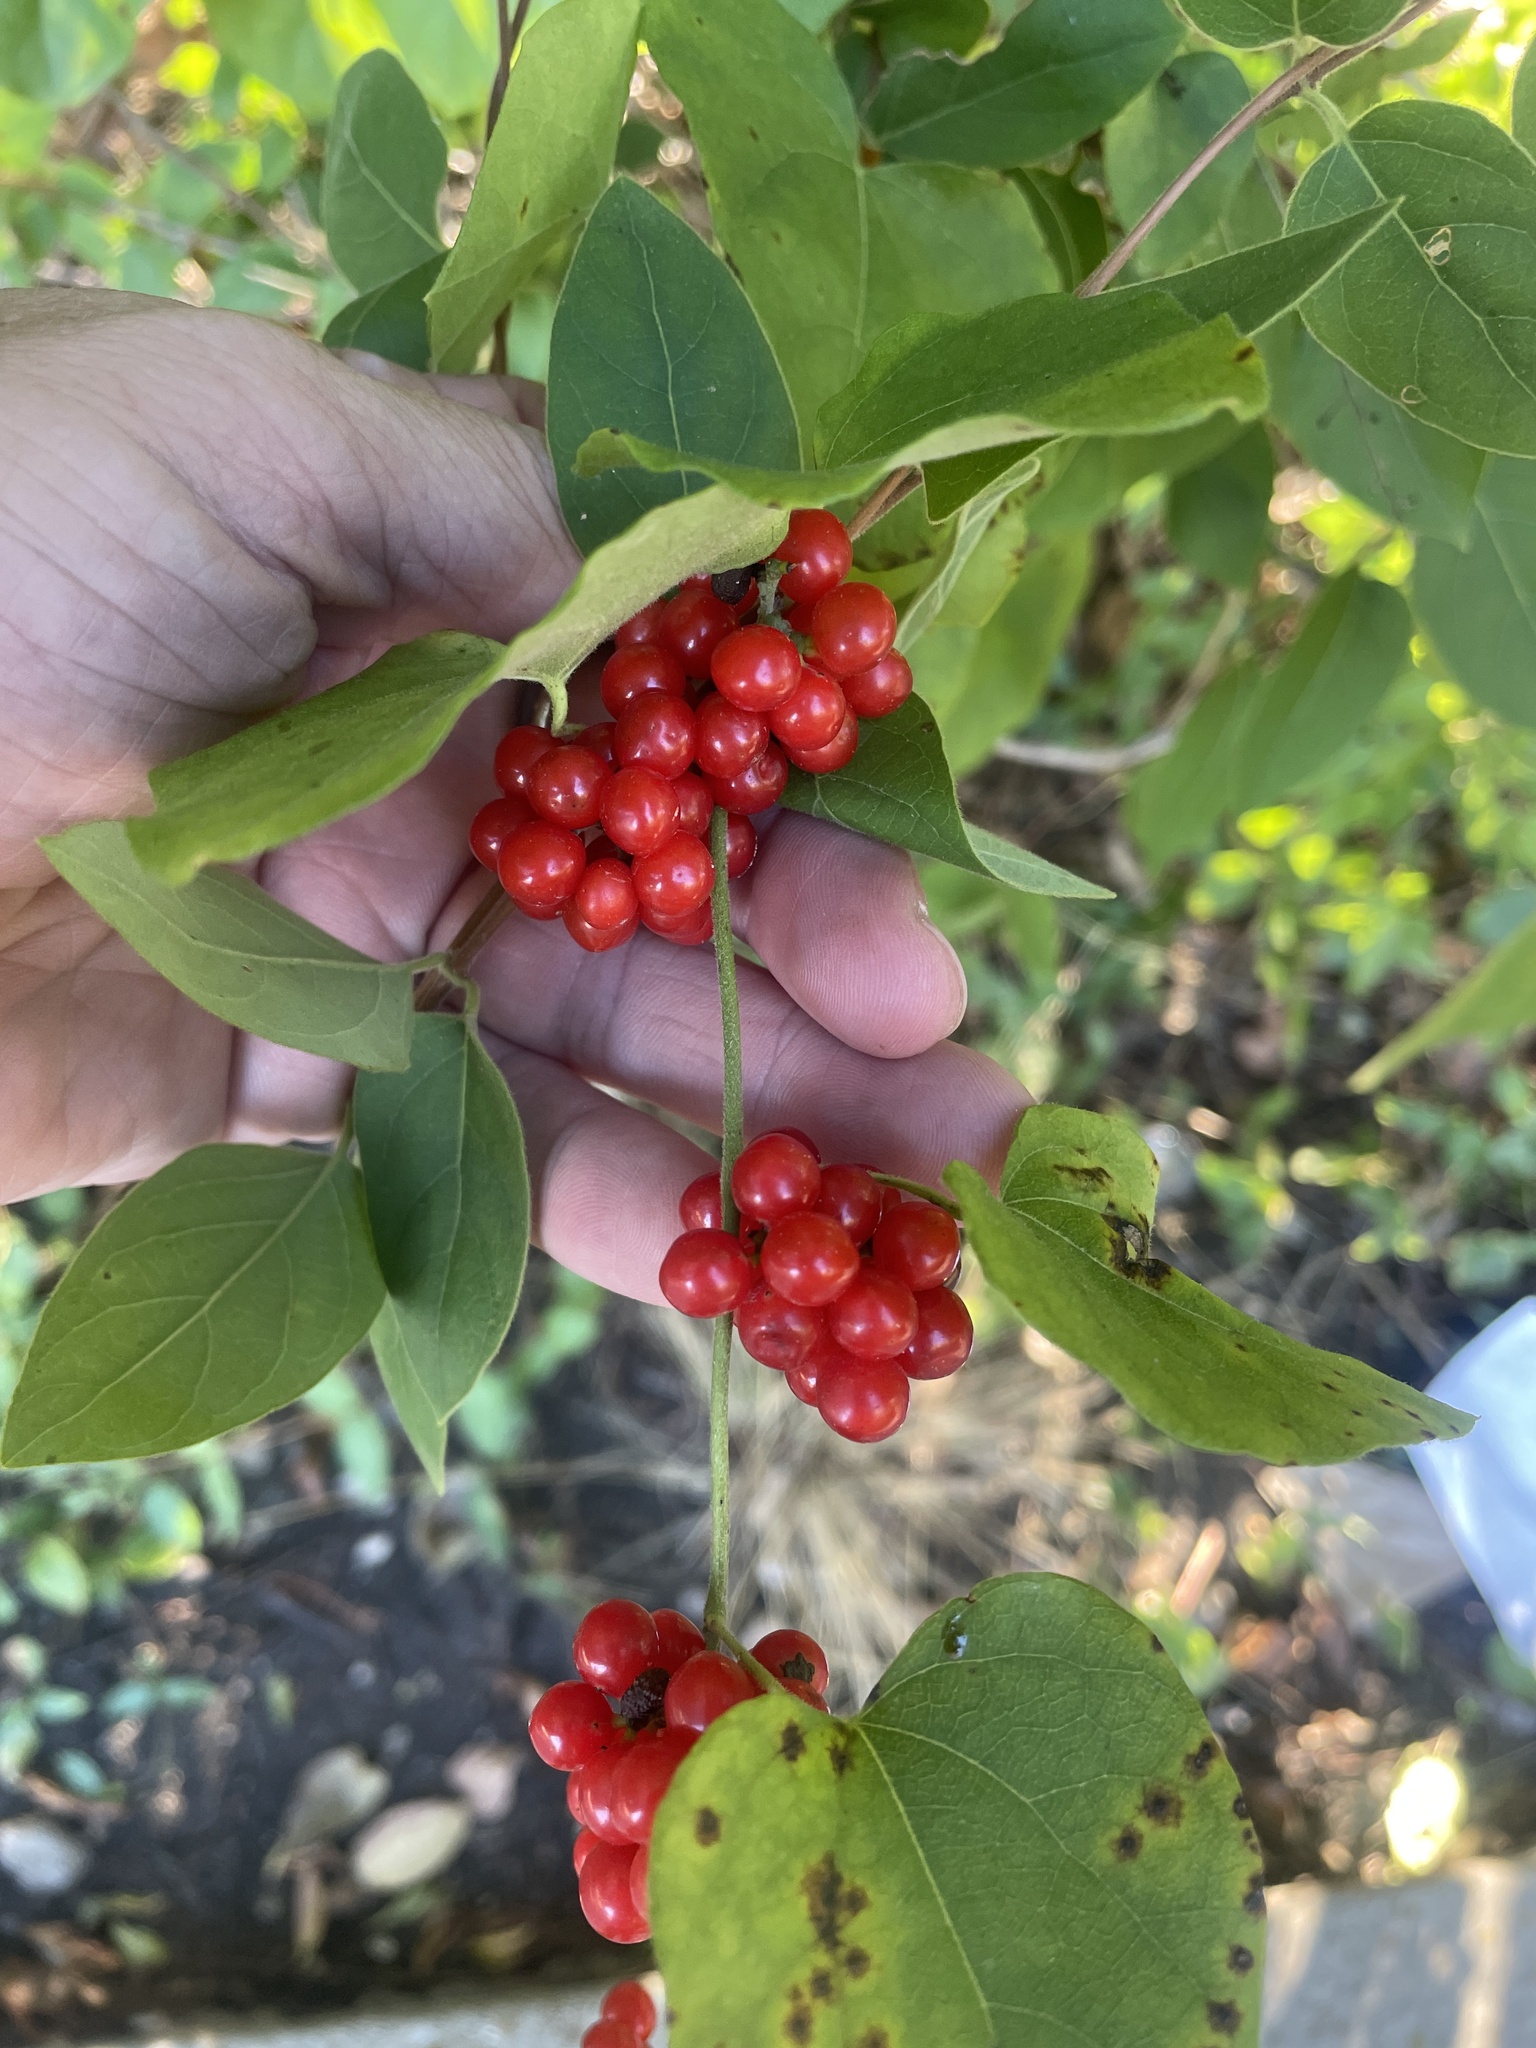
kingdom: Plantae
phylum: Tracheophyta
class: Magnoliopsida
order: Ranunculales
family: Menispermaceae
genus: Cocculus
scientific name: Cocculus carolinus
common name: Carolina moonseed
